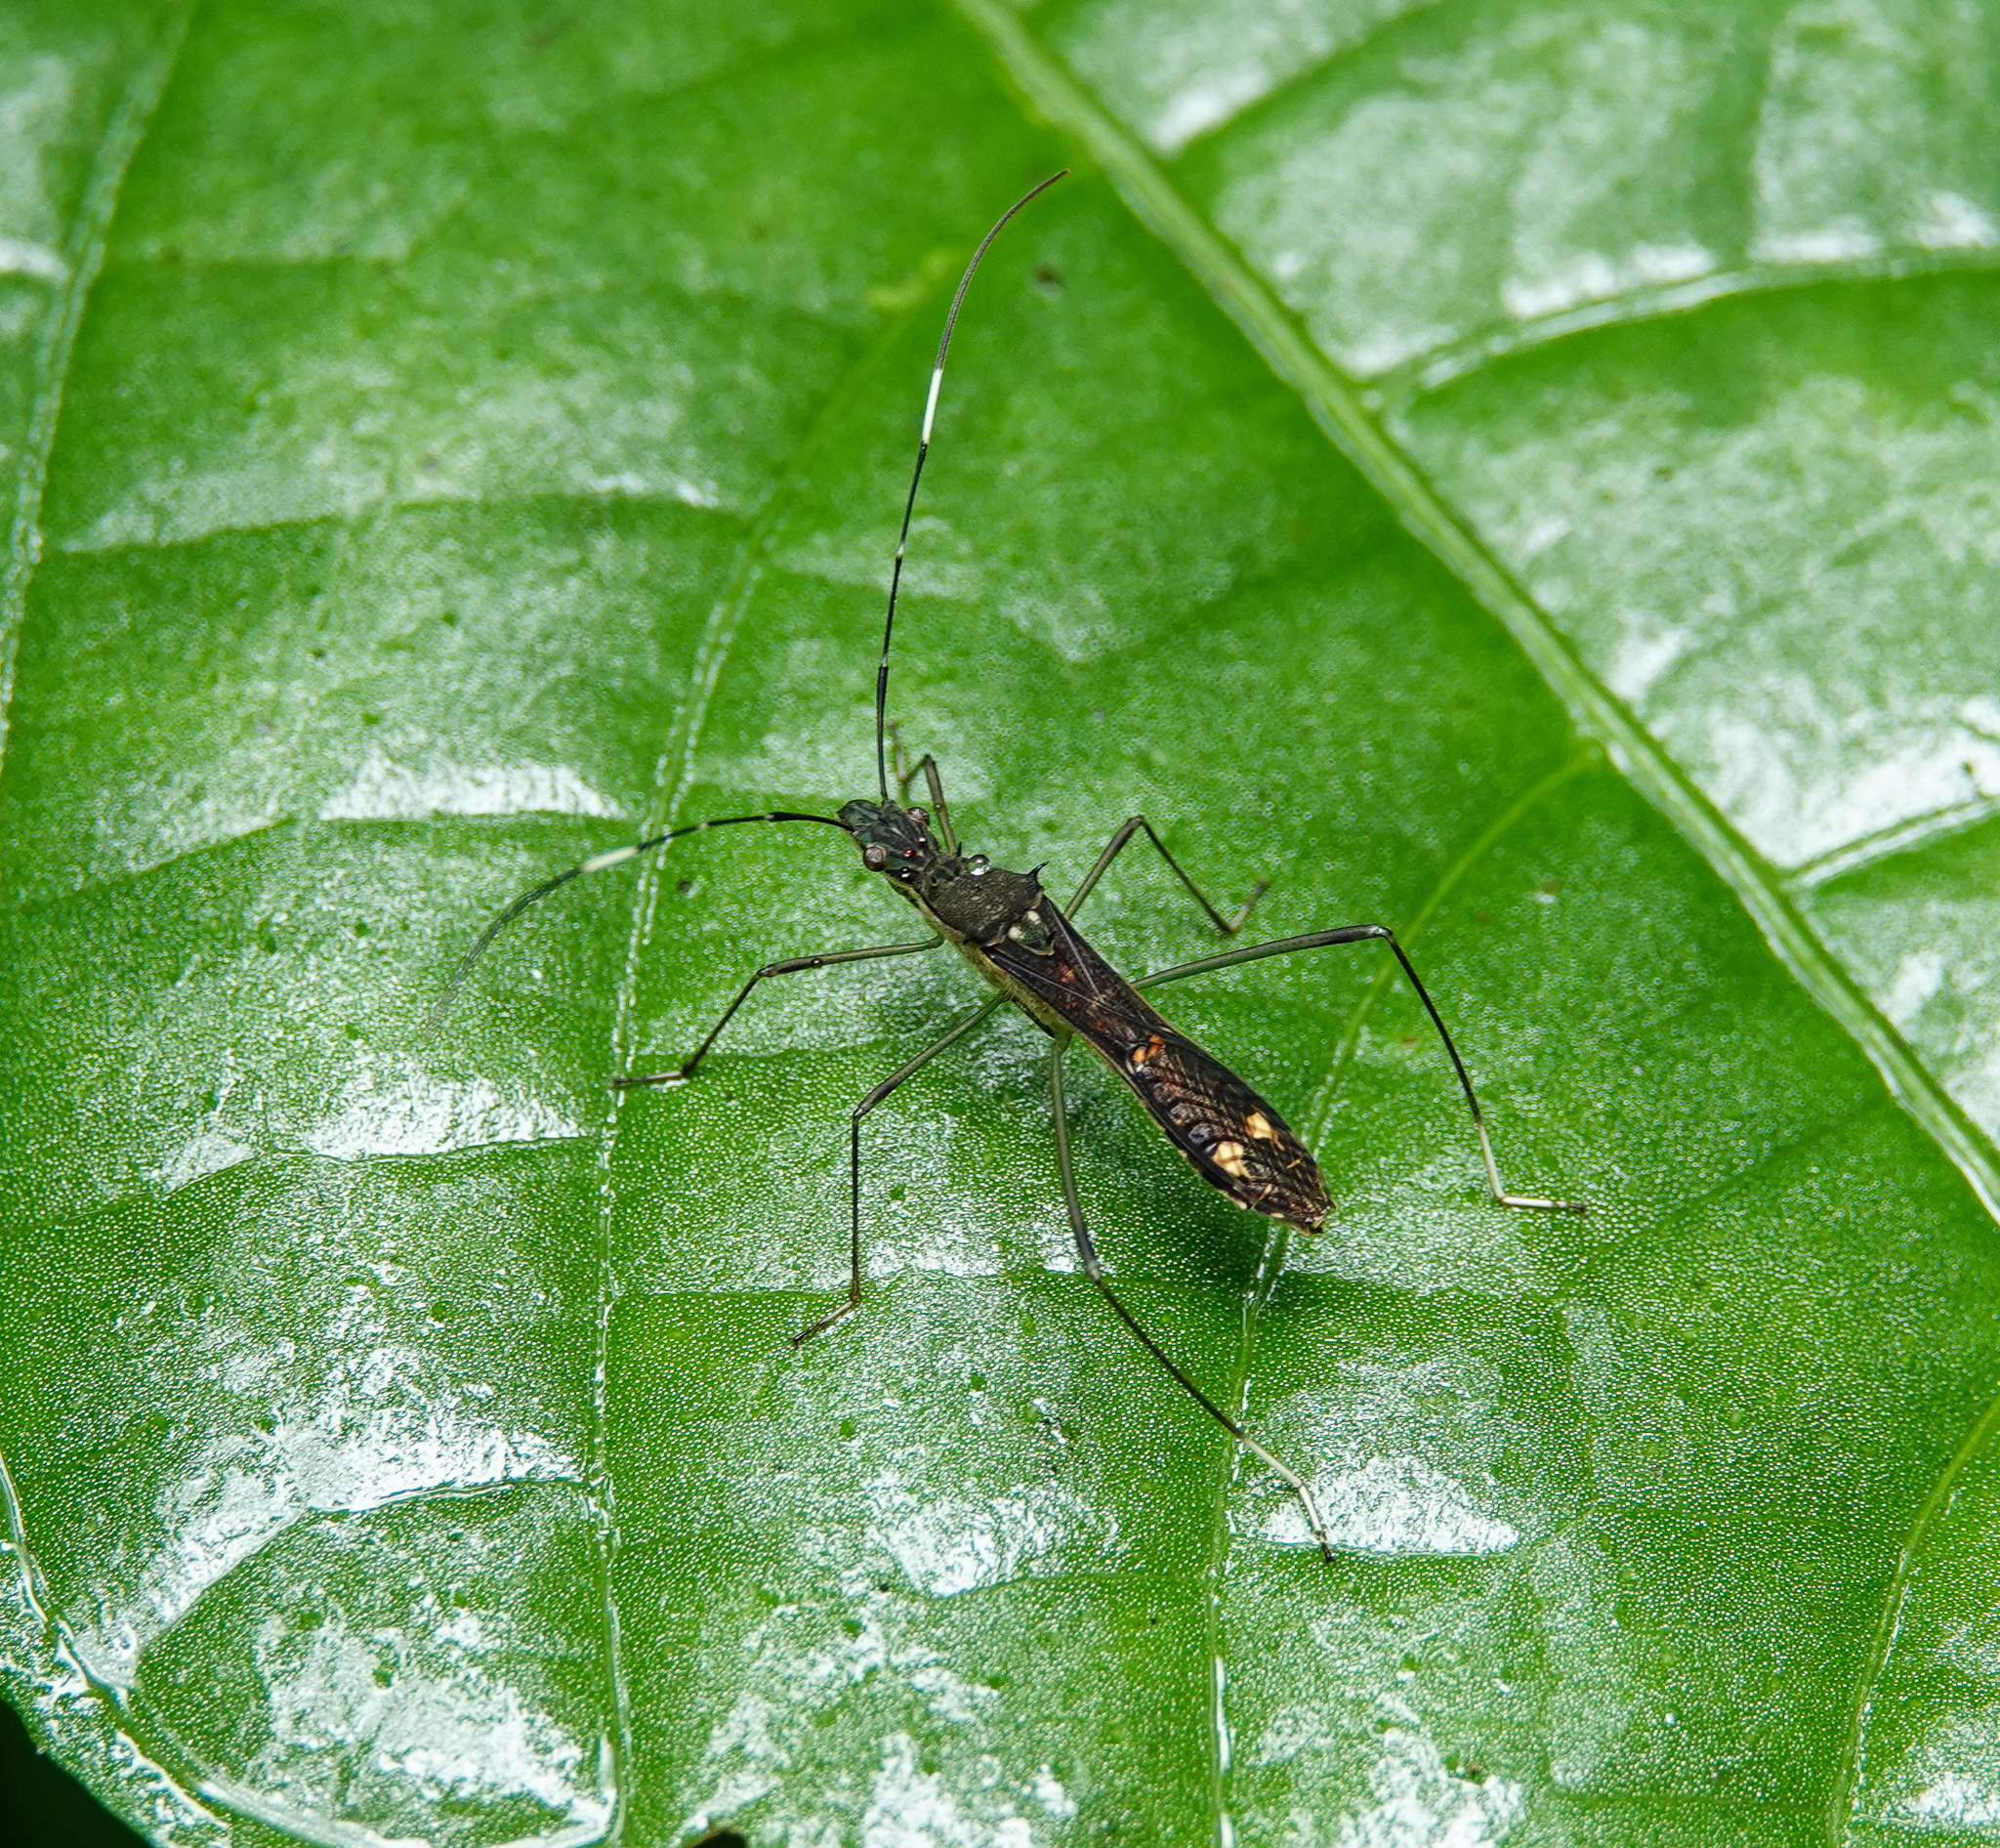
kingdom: Animalia
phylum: Arthropoda
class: Insecta
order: Hemiptera
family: Alydidae
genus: Marcius
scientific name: Marcius ornatulus
